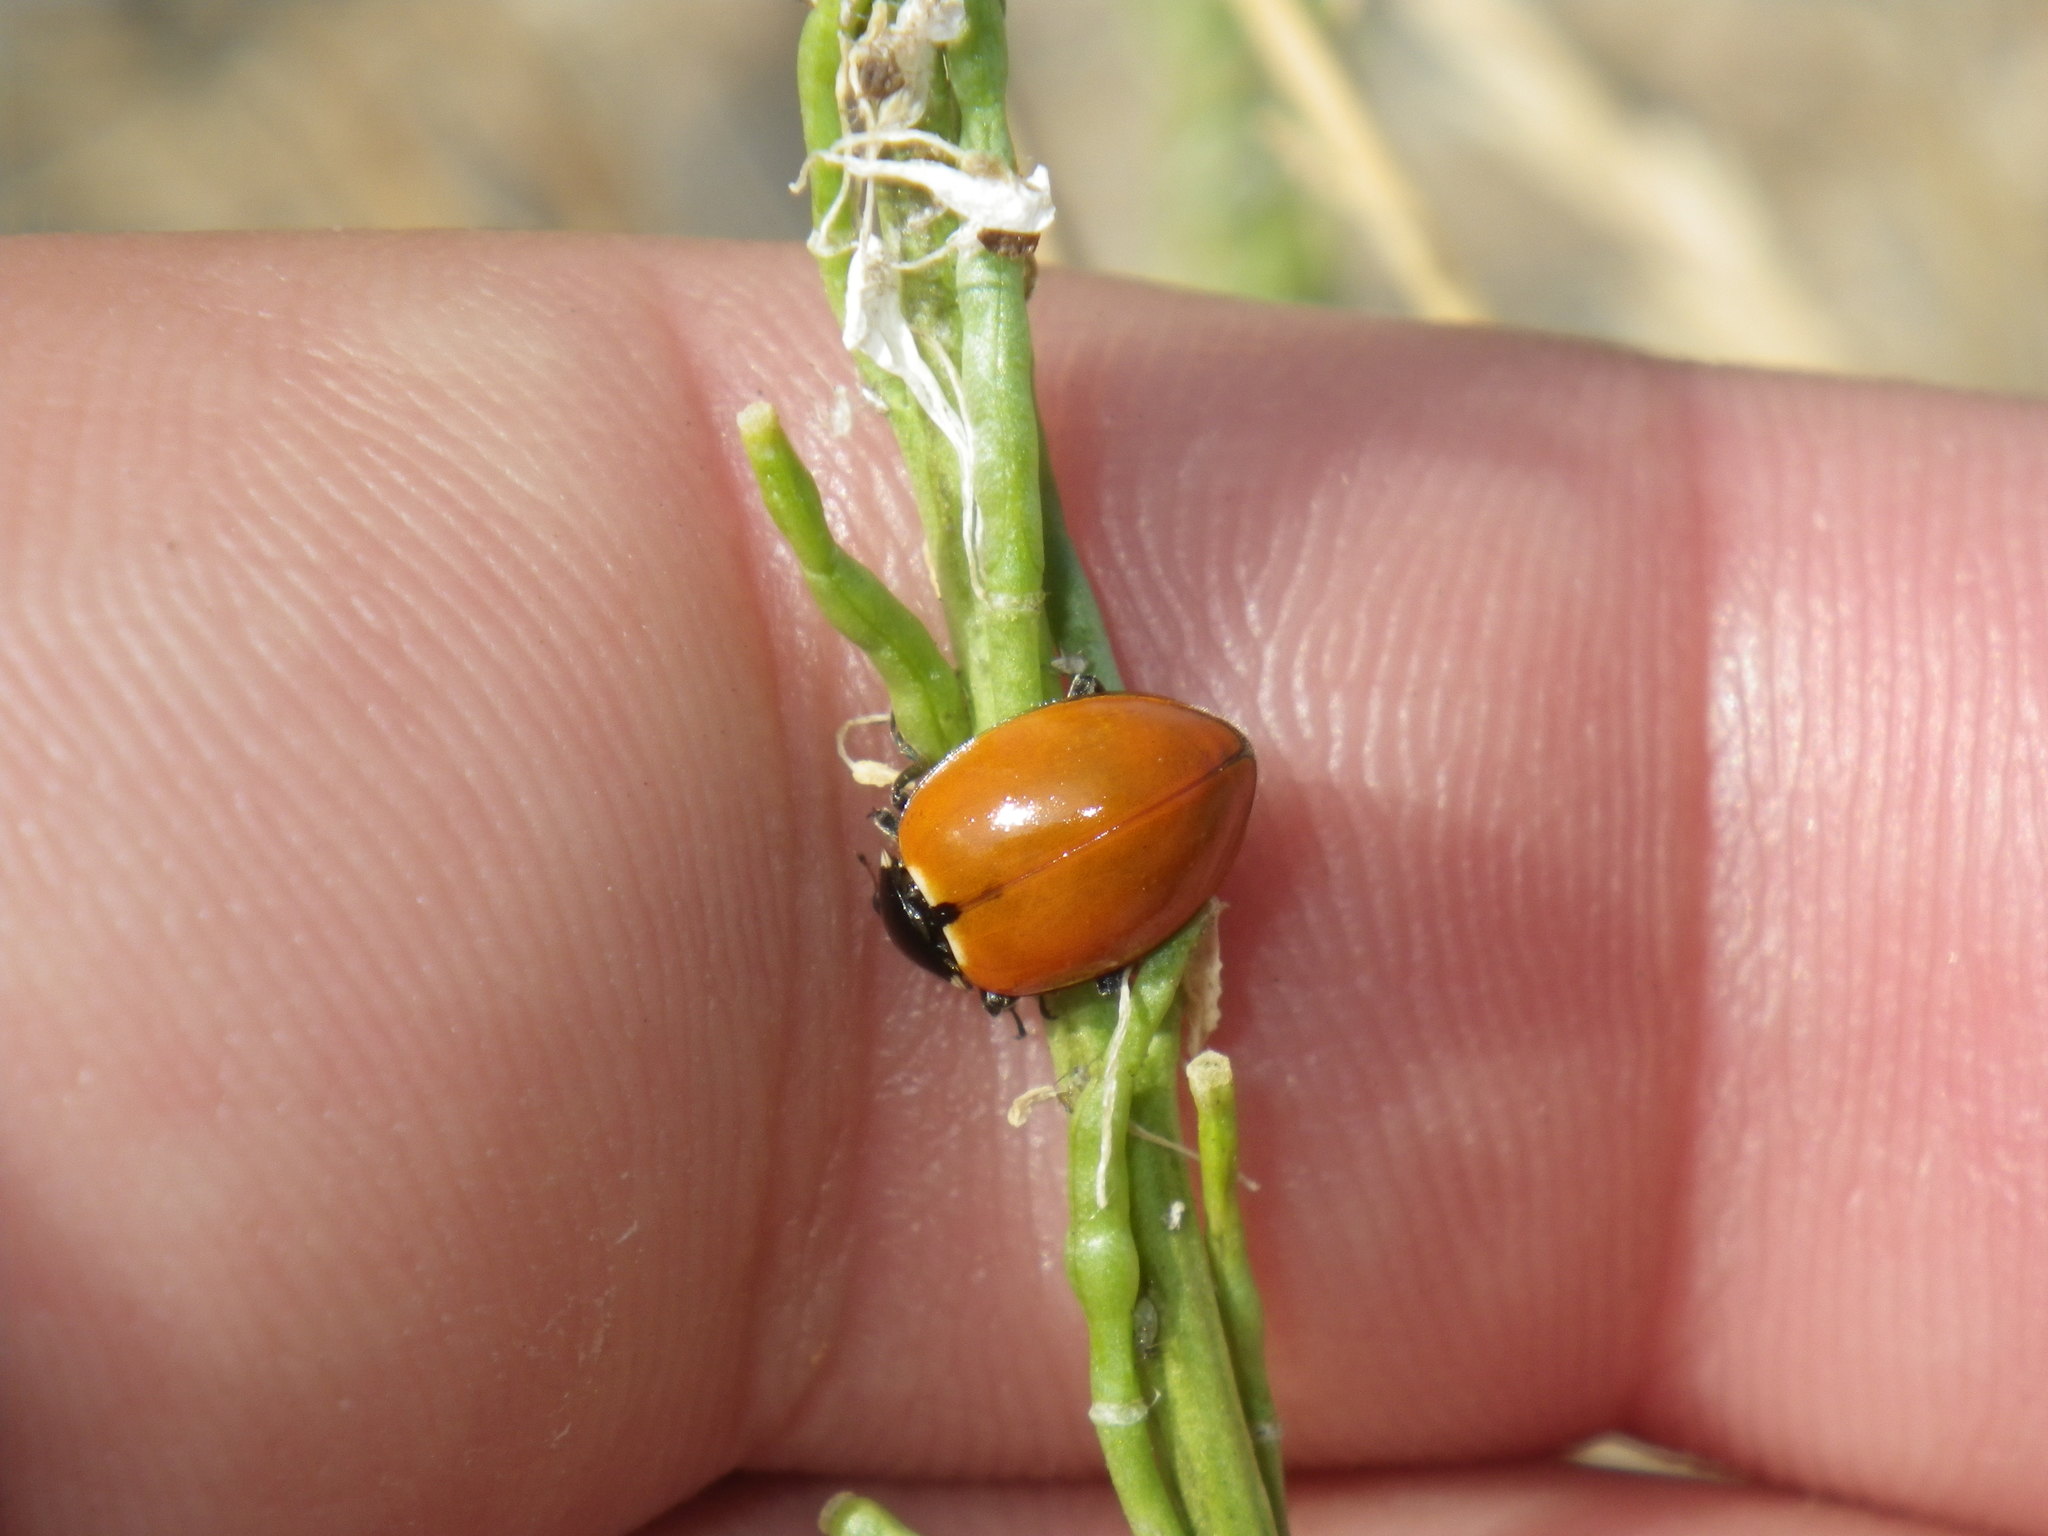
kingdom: Animalia
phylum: Arthropoda
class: Insecta
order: Coleoptera
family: Coccinellidae
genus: Hippodamia
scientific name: Hippodamia quinquesignata
